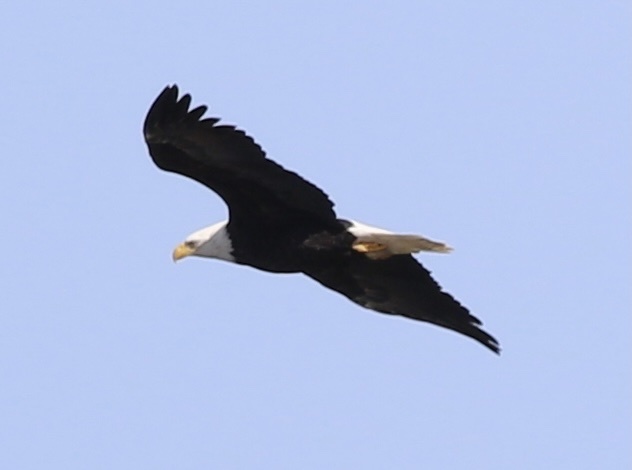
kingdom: Animalia
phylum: Chordata
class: Aves
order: Accipitriformes
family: Accipitridae
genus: Haliaeetus
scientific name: Haliaeetus leucocephalus
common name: Bald eagle
